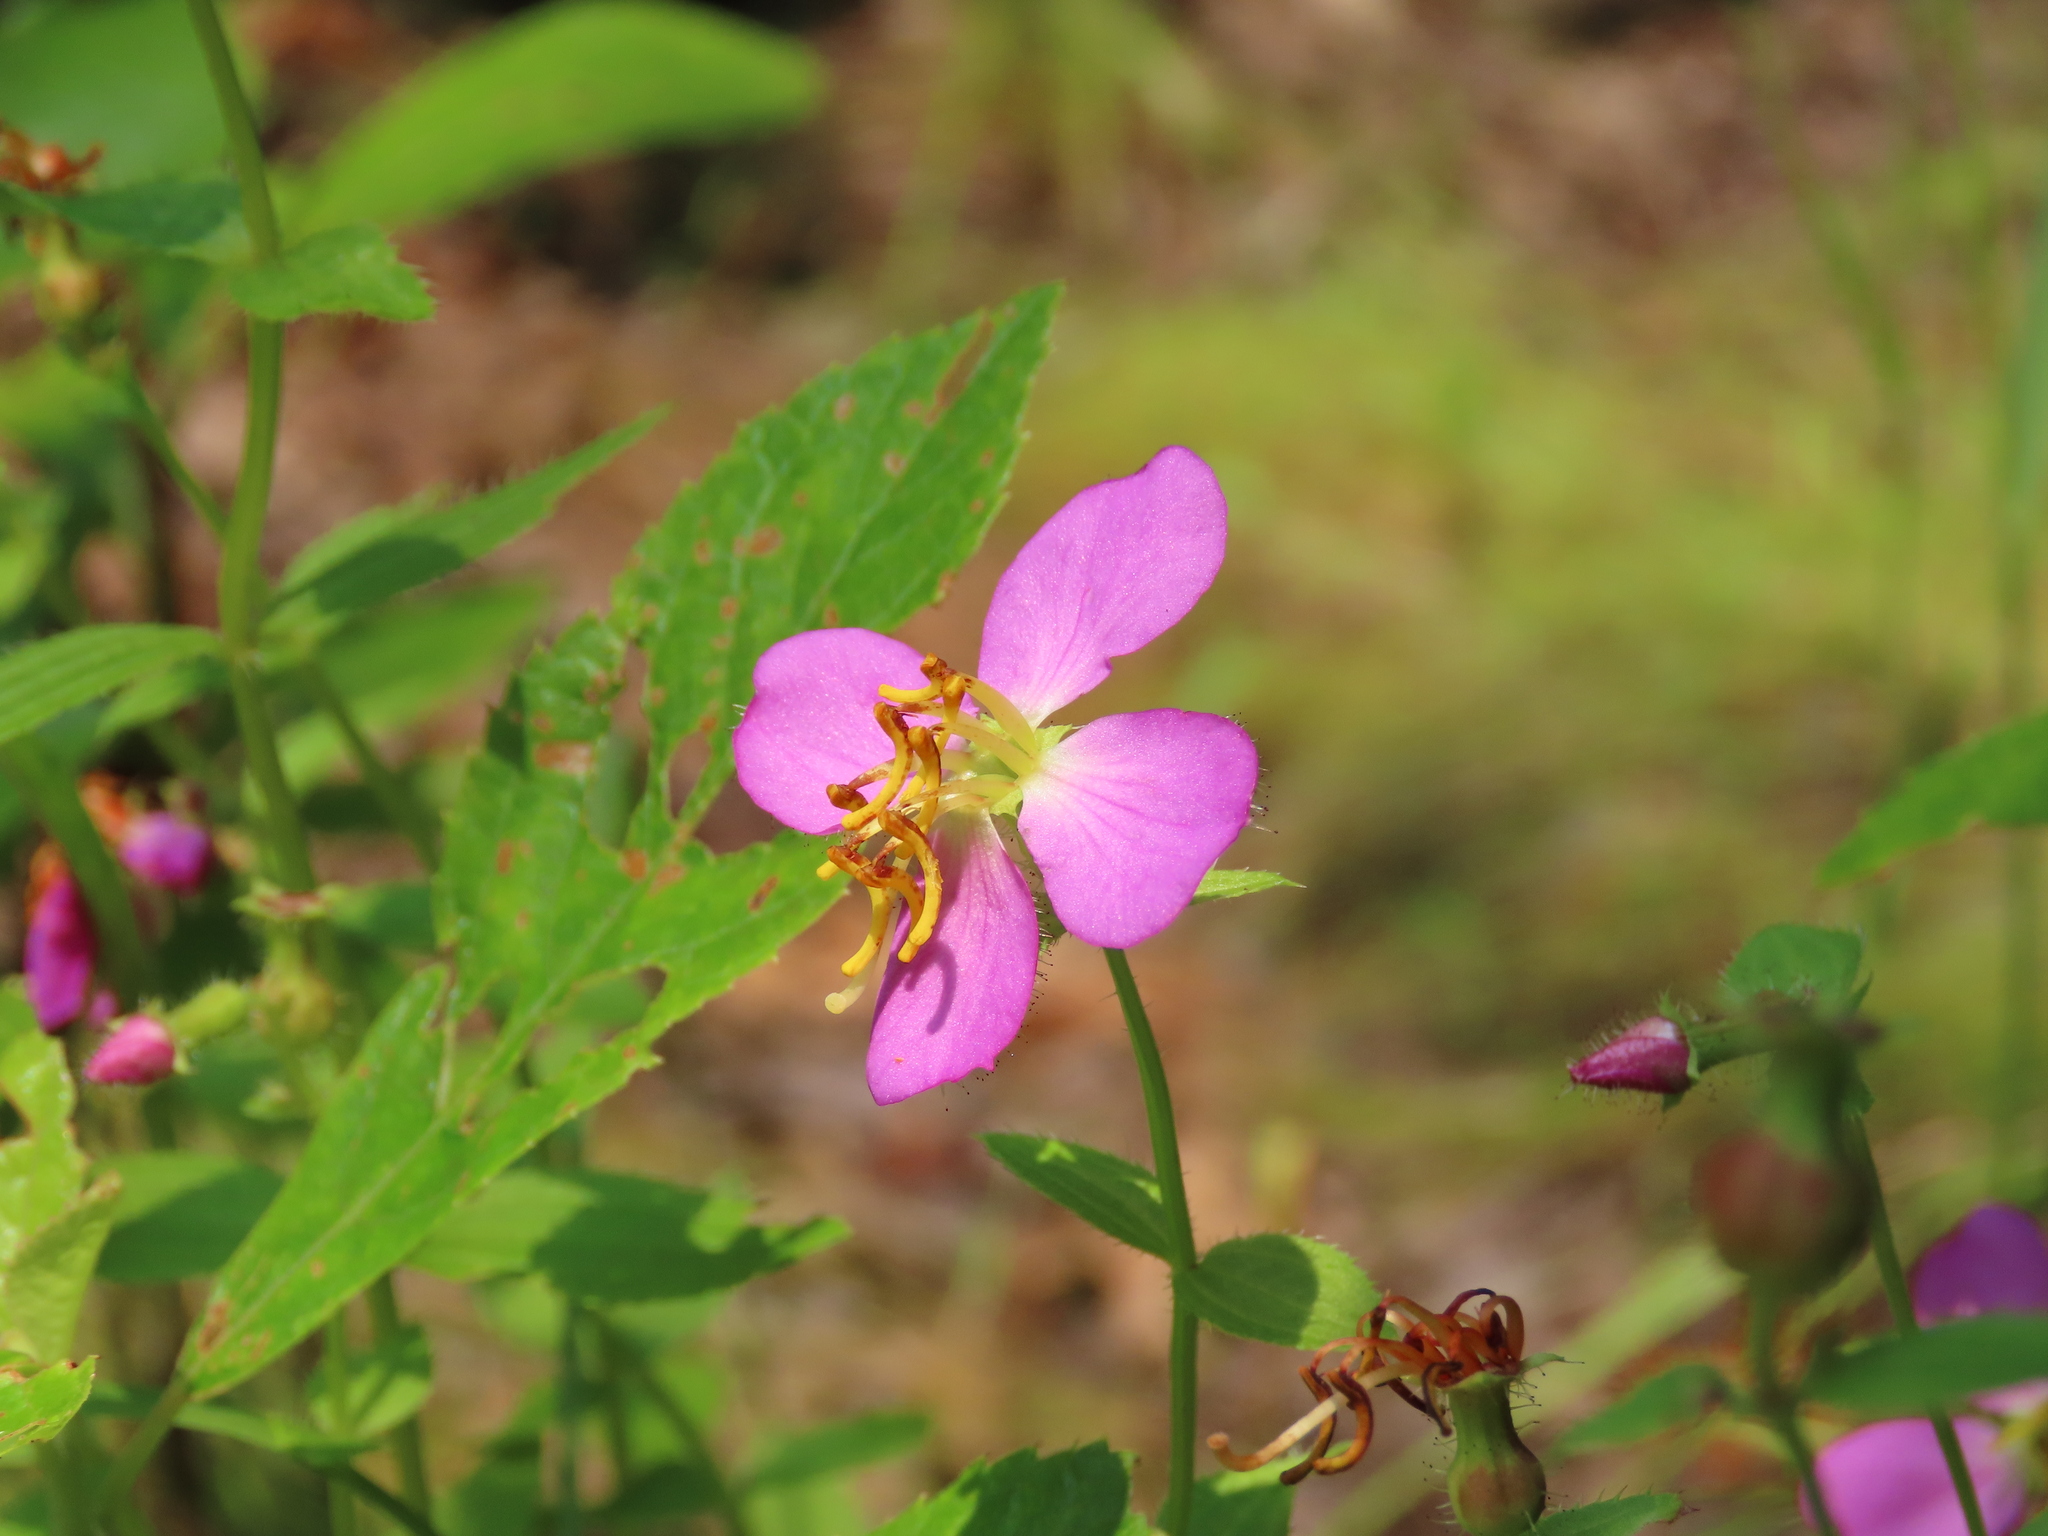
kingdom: Plantae
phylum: Tracheophyta
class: Magnoliopsida
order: Myrtales
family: Melastomataceae
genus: Rhexia
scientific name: Rhexia virginica
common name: Common meadow beauty
